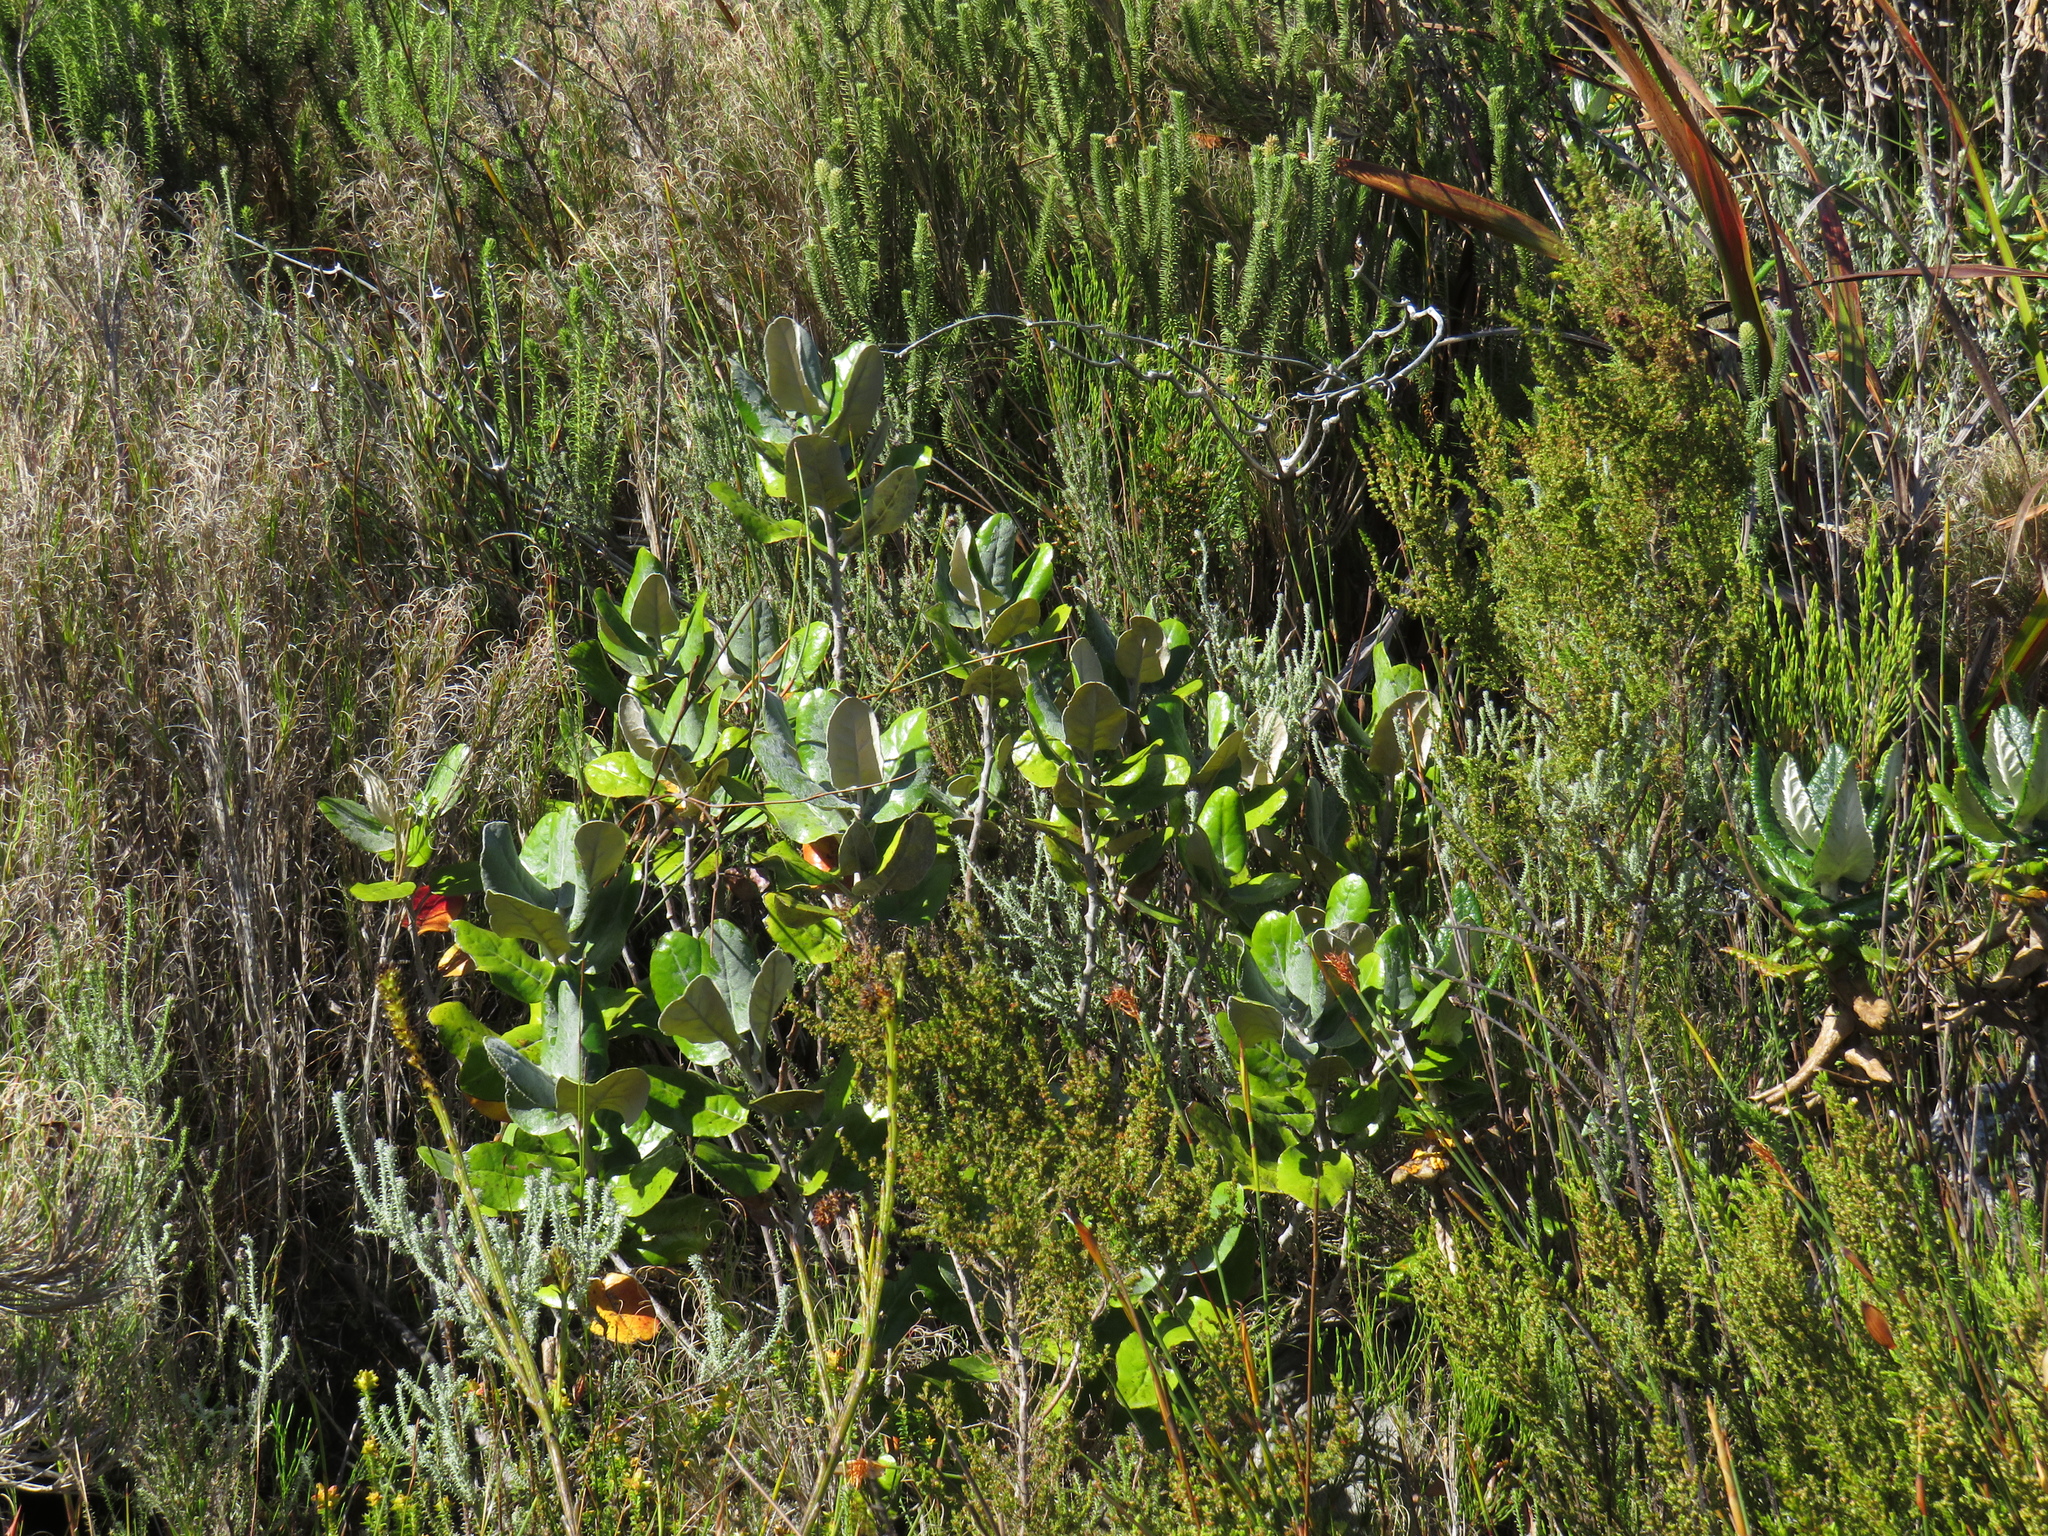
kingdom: Plantae
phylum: Tracheophyta
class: Magnoliopsida
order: Asterales
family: Asteraceae
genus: Capelio
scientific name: Capelio tabularis
